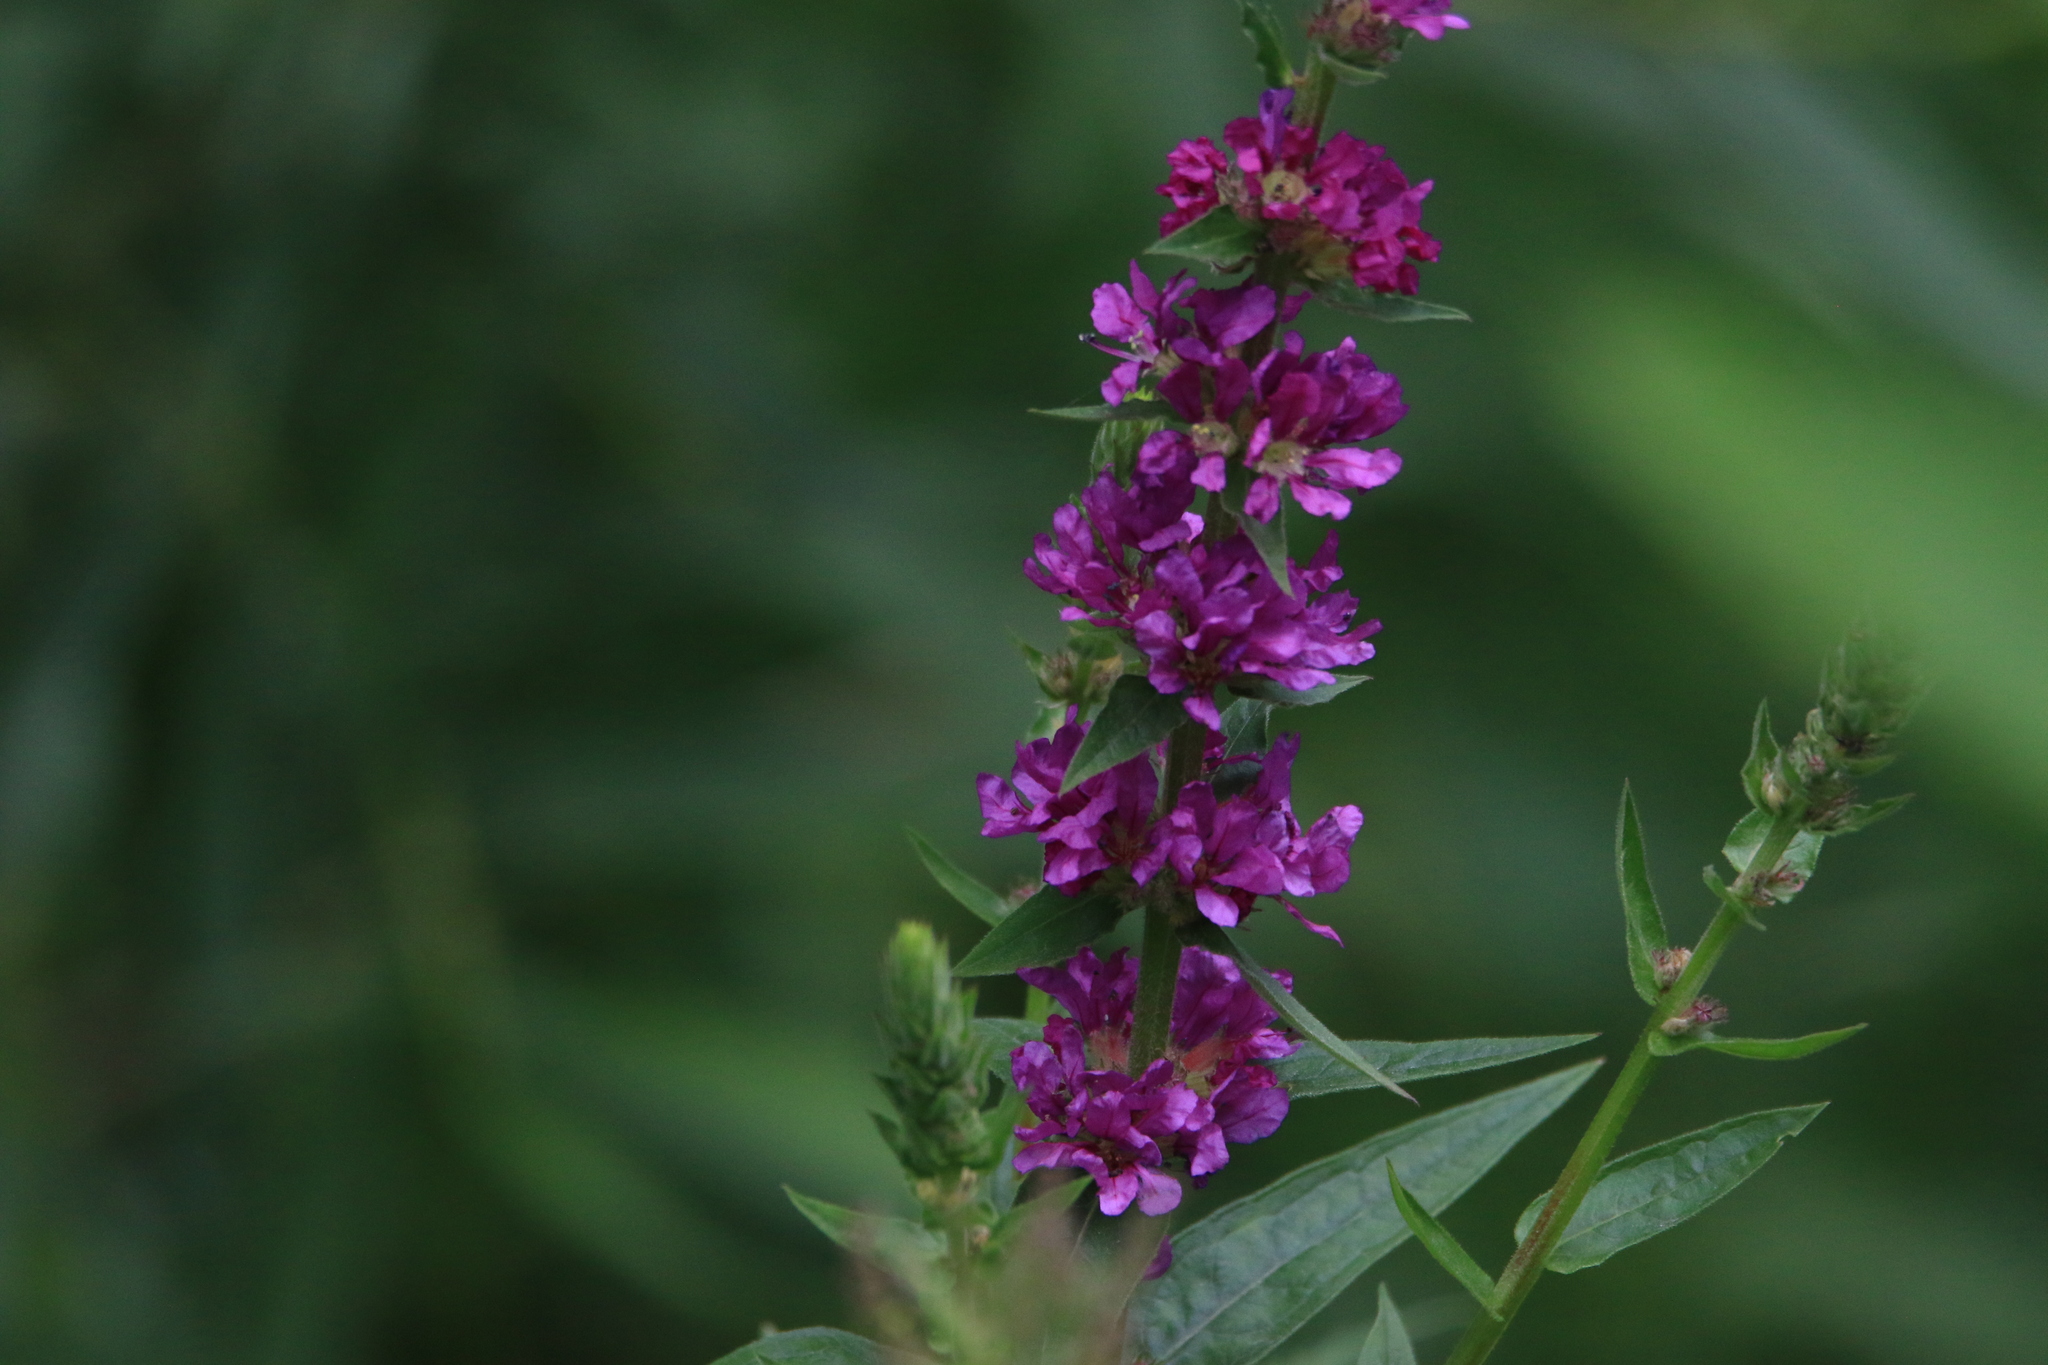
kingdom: Plantae
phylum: Tracheophyta
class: Magnoliopsida
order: Myrtales
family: Lythraceae
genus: Lythrum
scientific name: Lythrum salicaria
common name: Purple loosestrife
